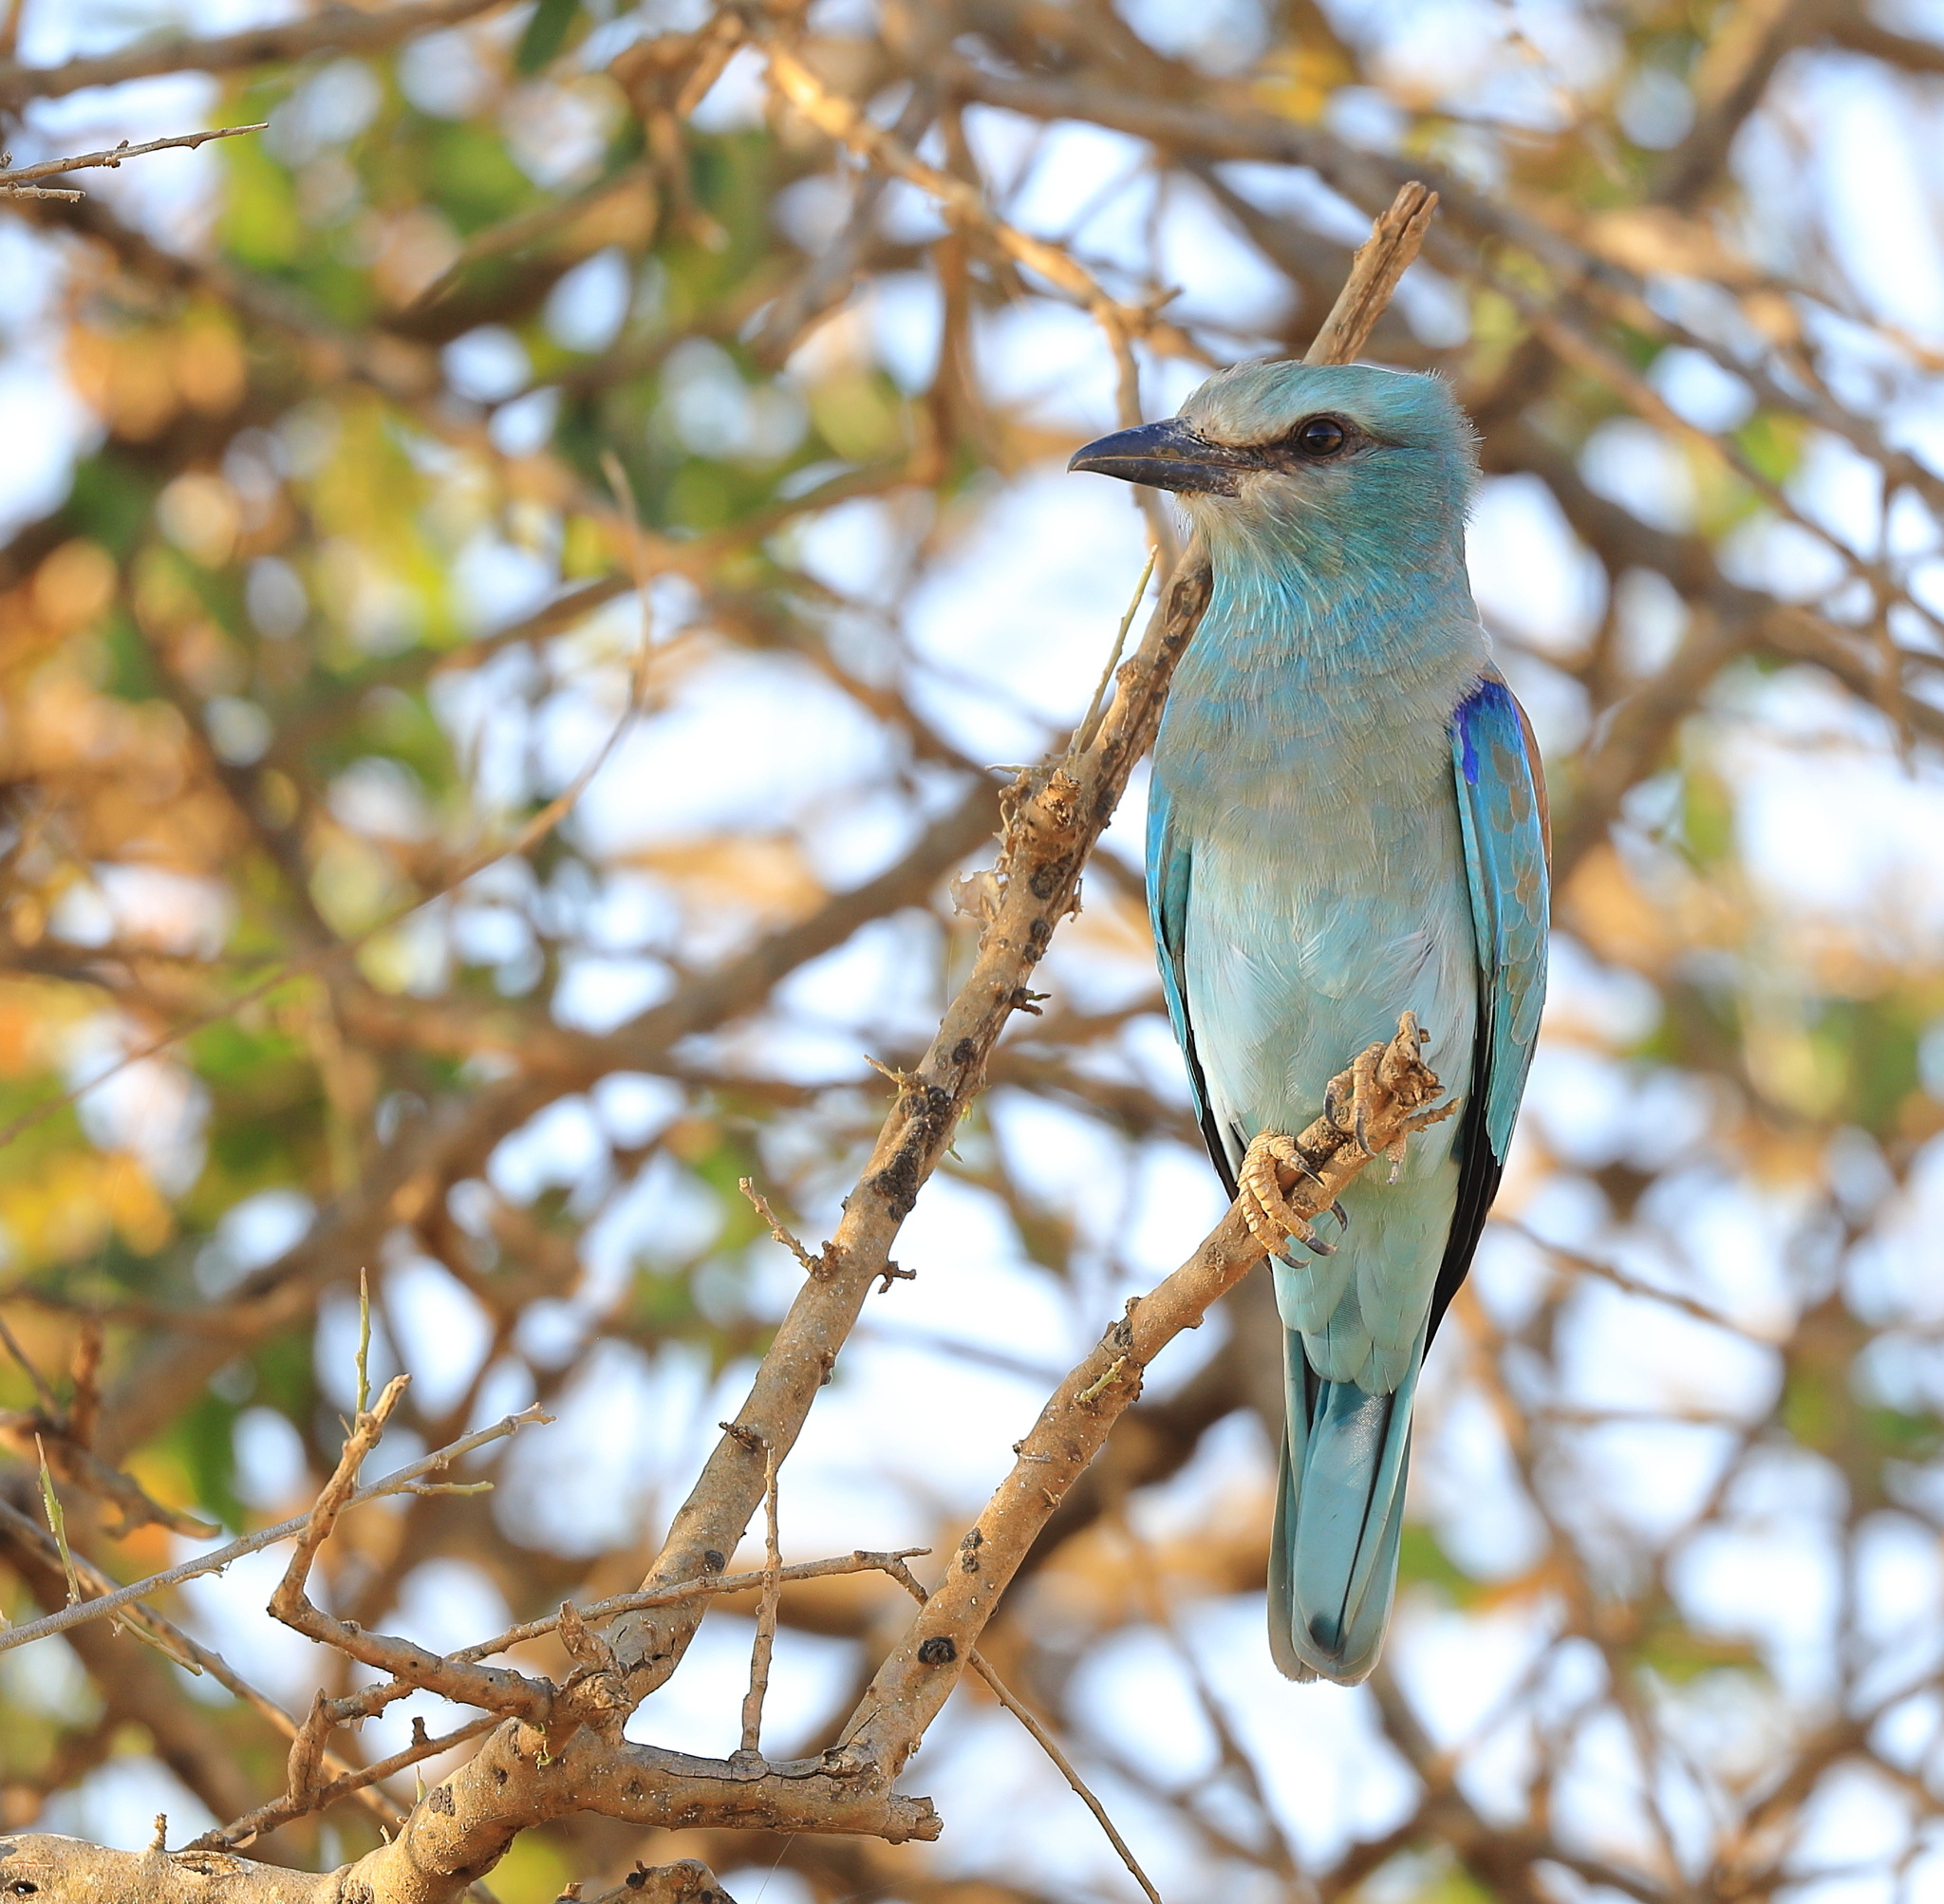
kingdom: Animalia
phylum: Chordata
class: Aves
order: Coraciiformes
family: Coraciidae
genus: Coracias
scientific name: Coracias garrulus
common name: European roller
